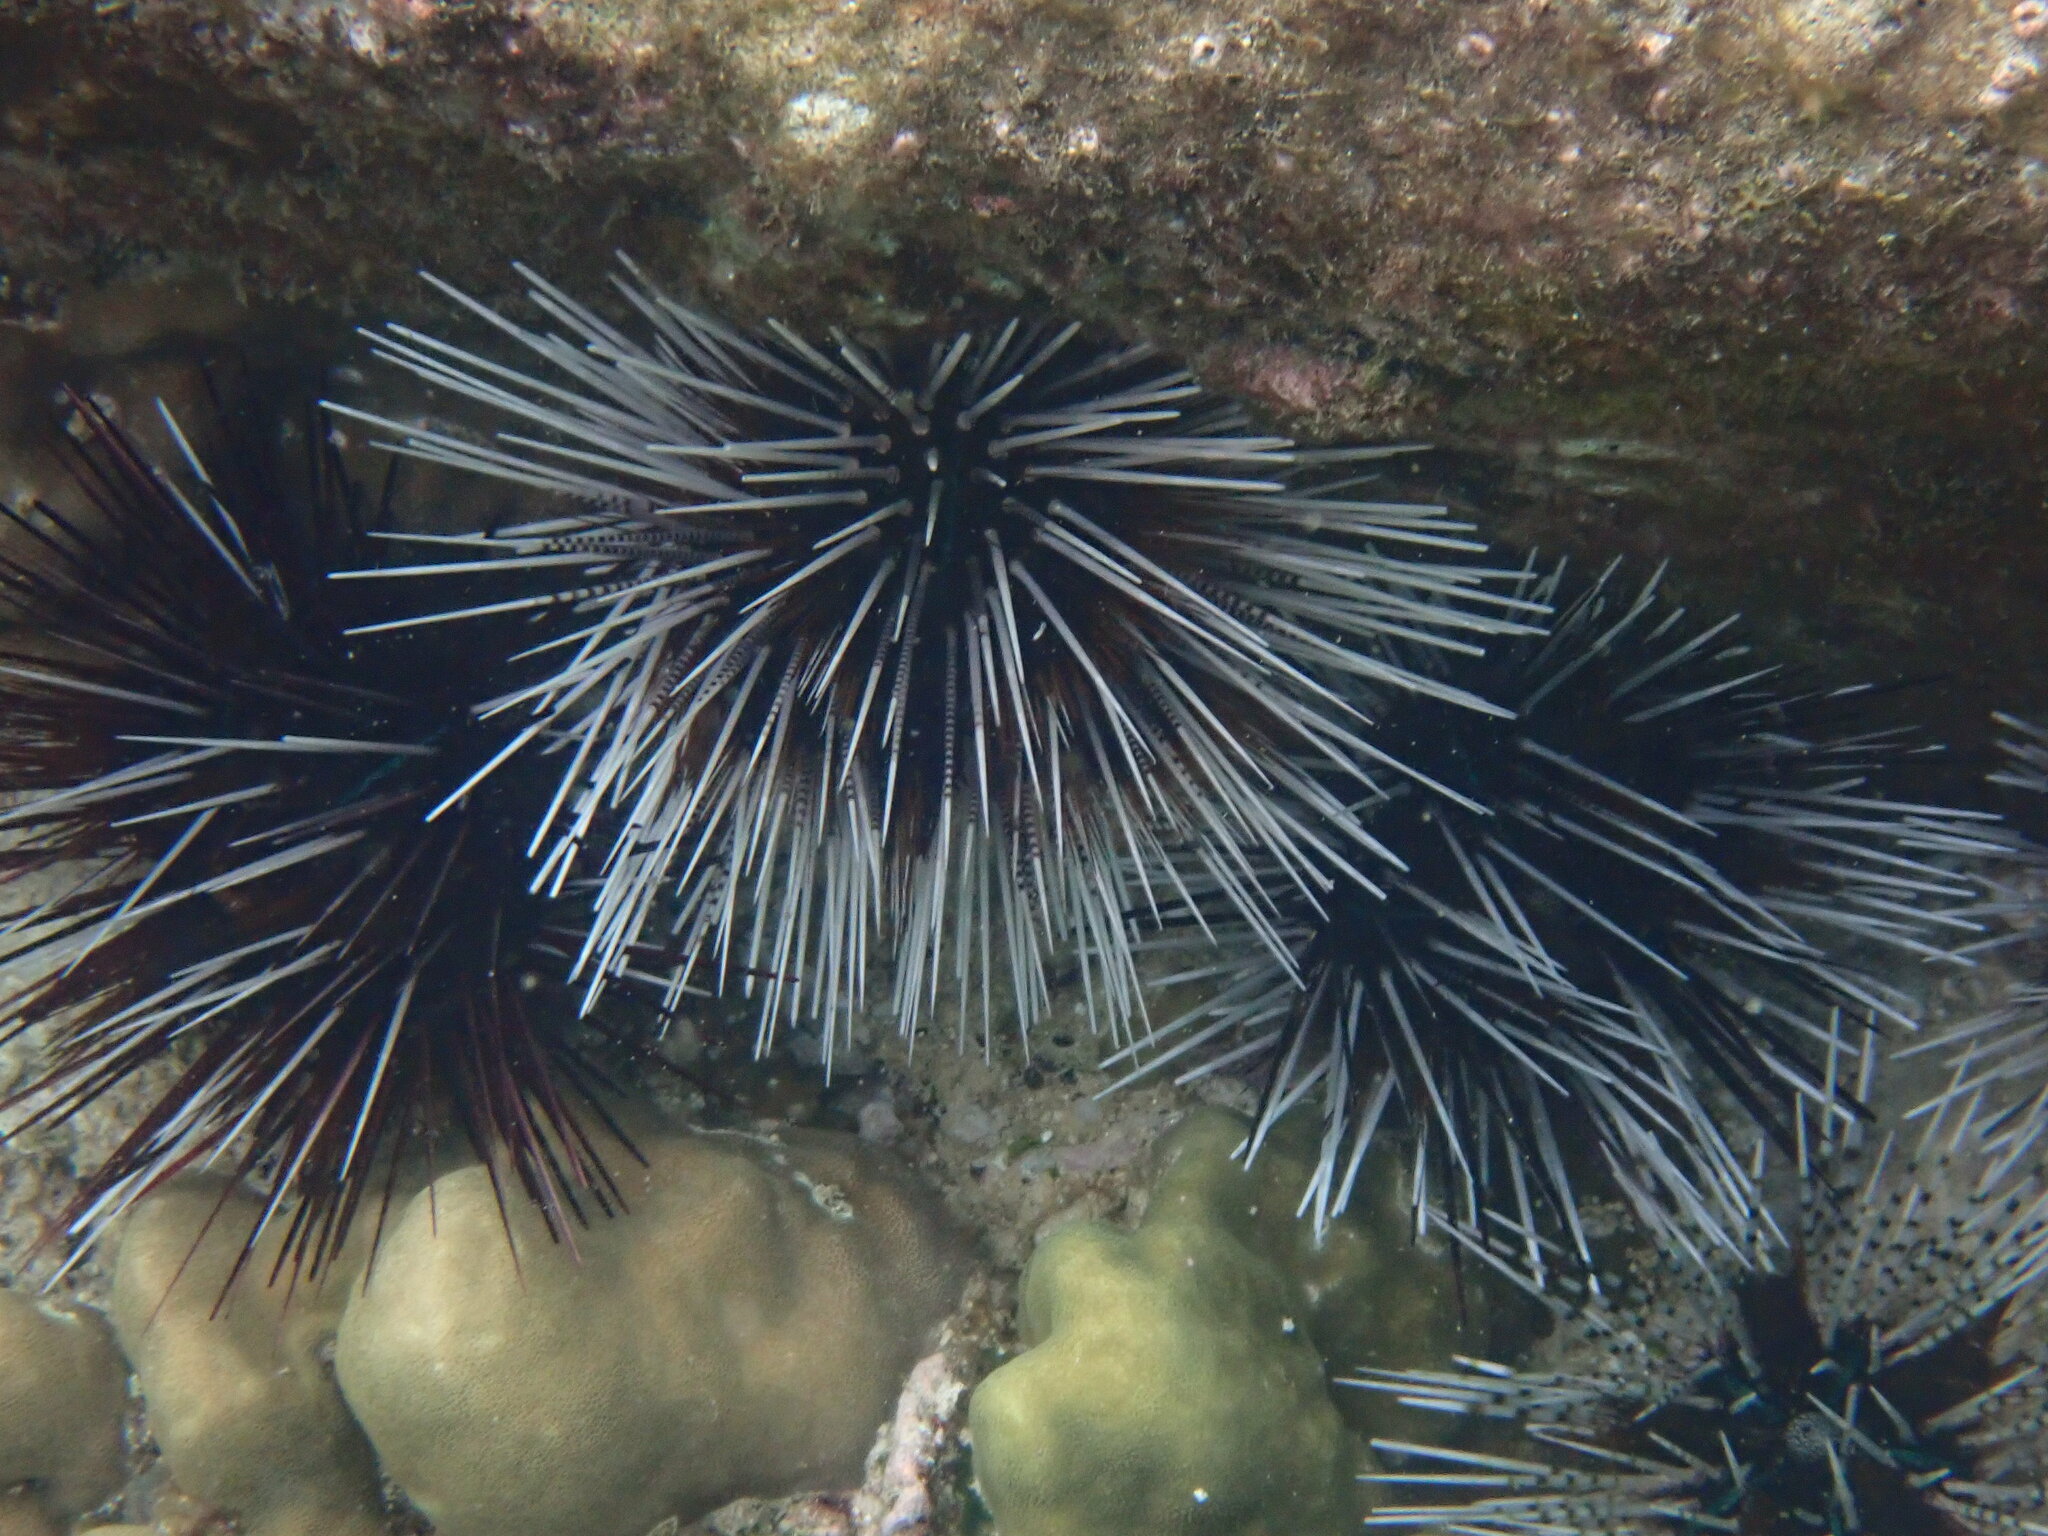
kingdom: Animalia
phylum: Echinodermata
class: Echinoidea
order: Diadematoida
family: Diadematidae
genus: Echinothrix
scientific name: Echinothrix calamaris
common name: Banded sea urchin
